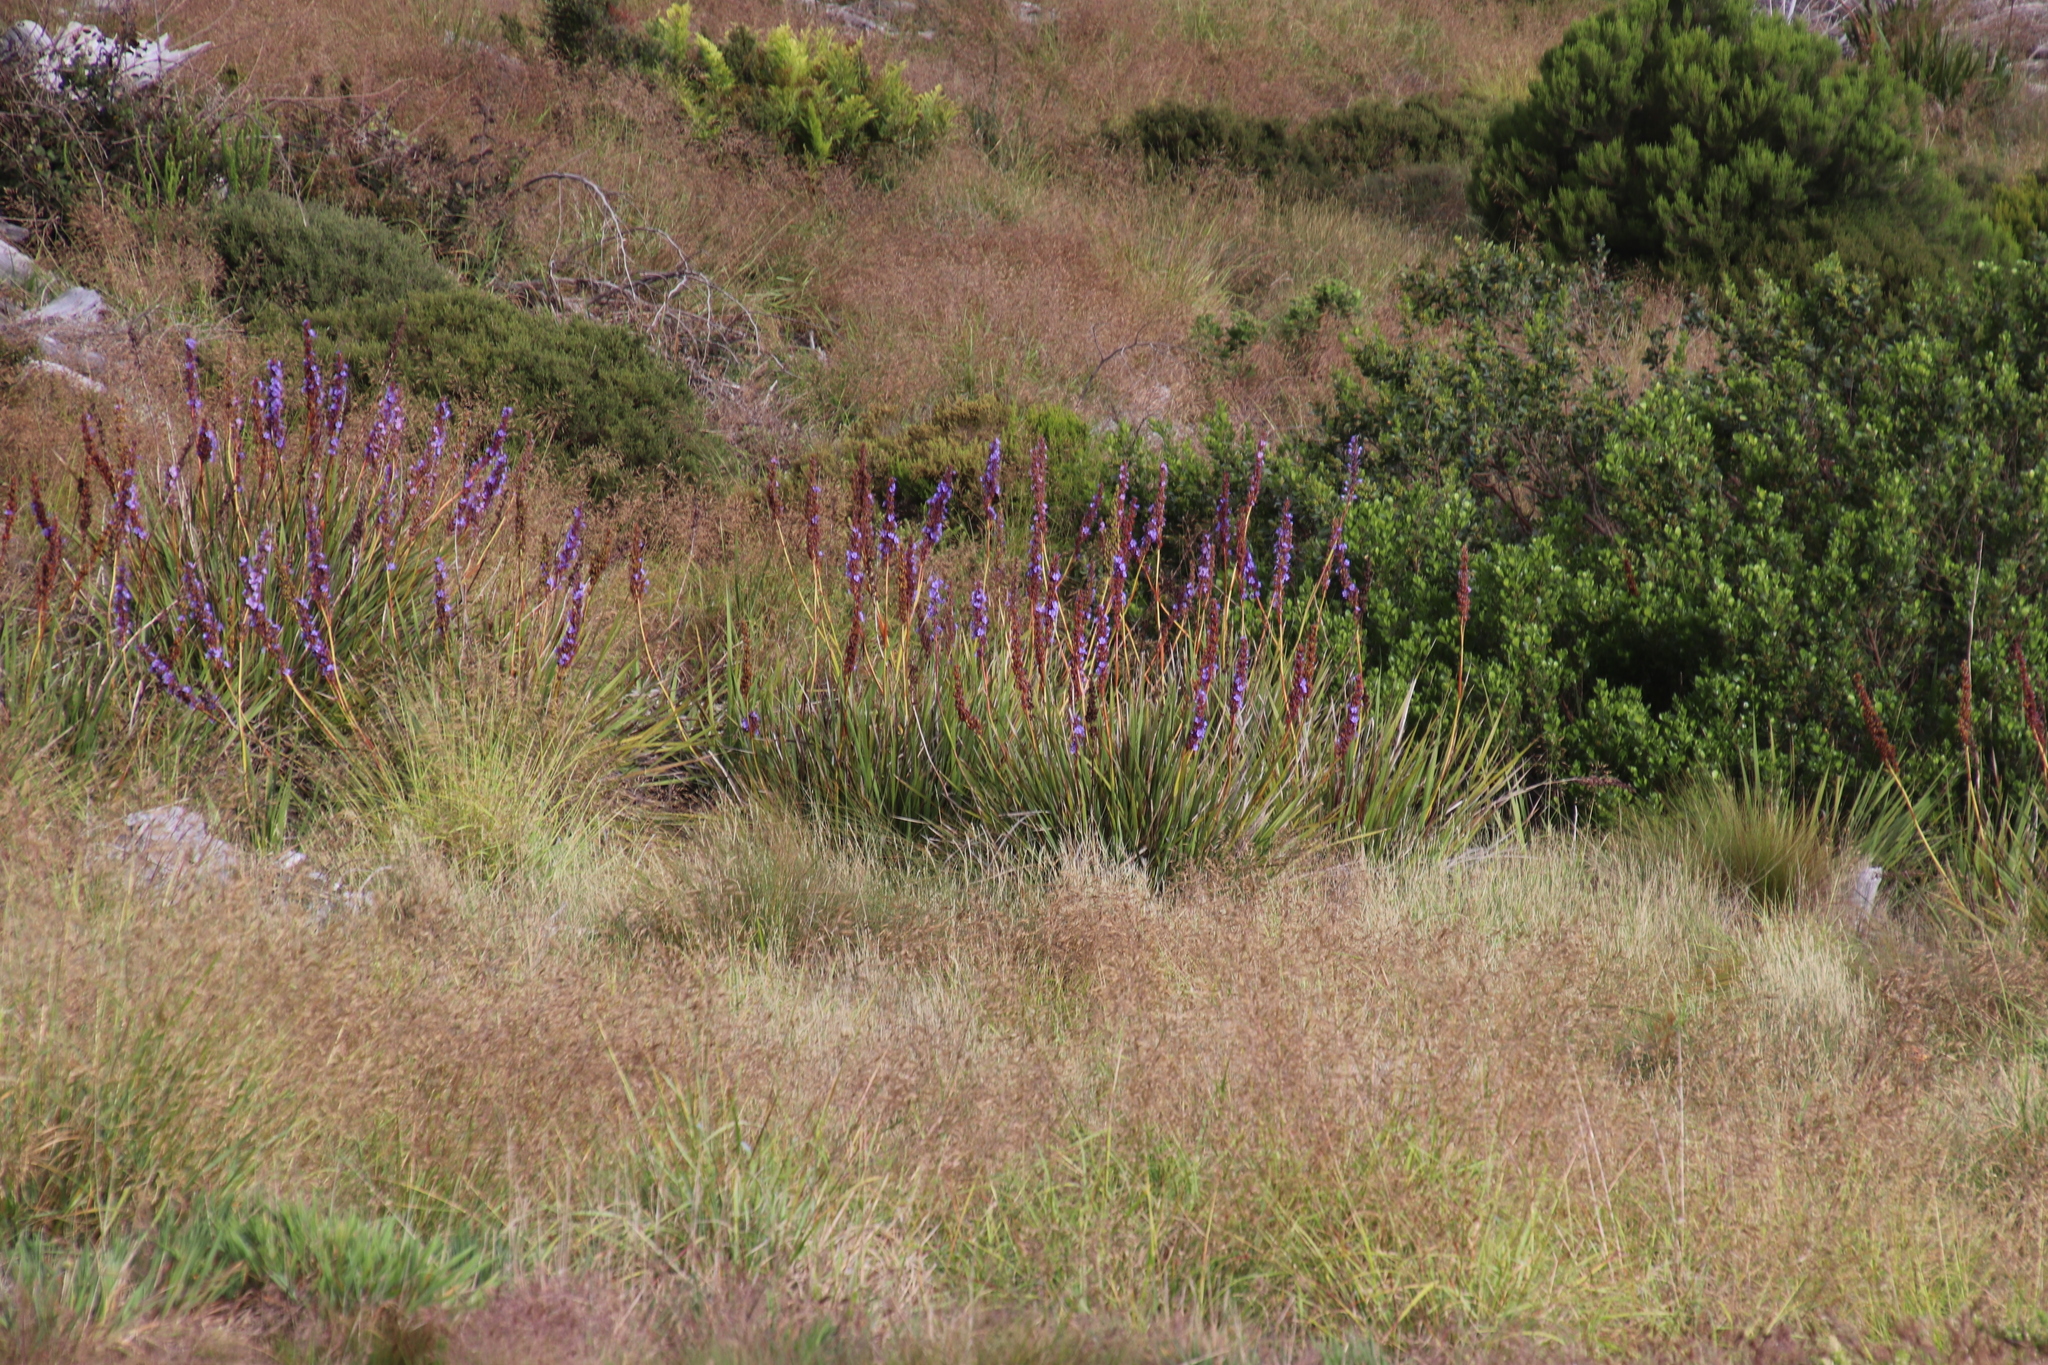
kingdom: Plantae
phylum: Tracheophyta
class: Liliopsida
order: Asparagales
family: Iridaceae
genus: Aristea
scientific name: Aristea capitata
